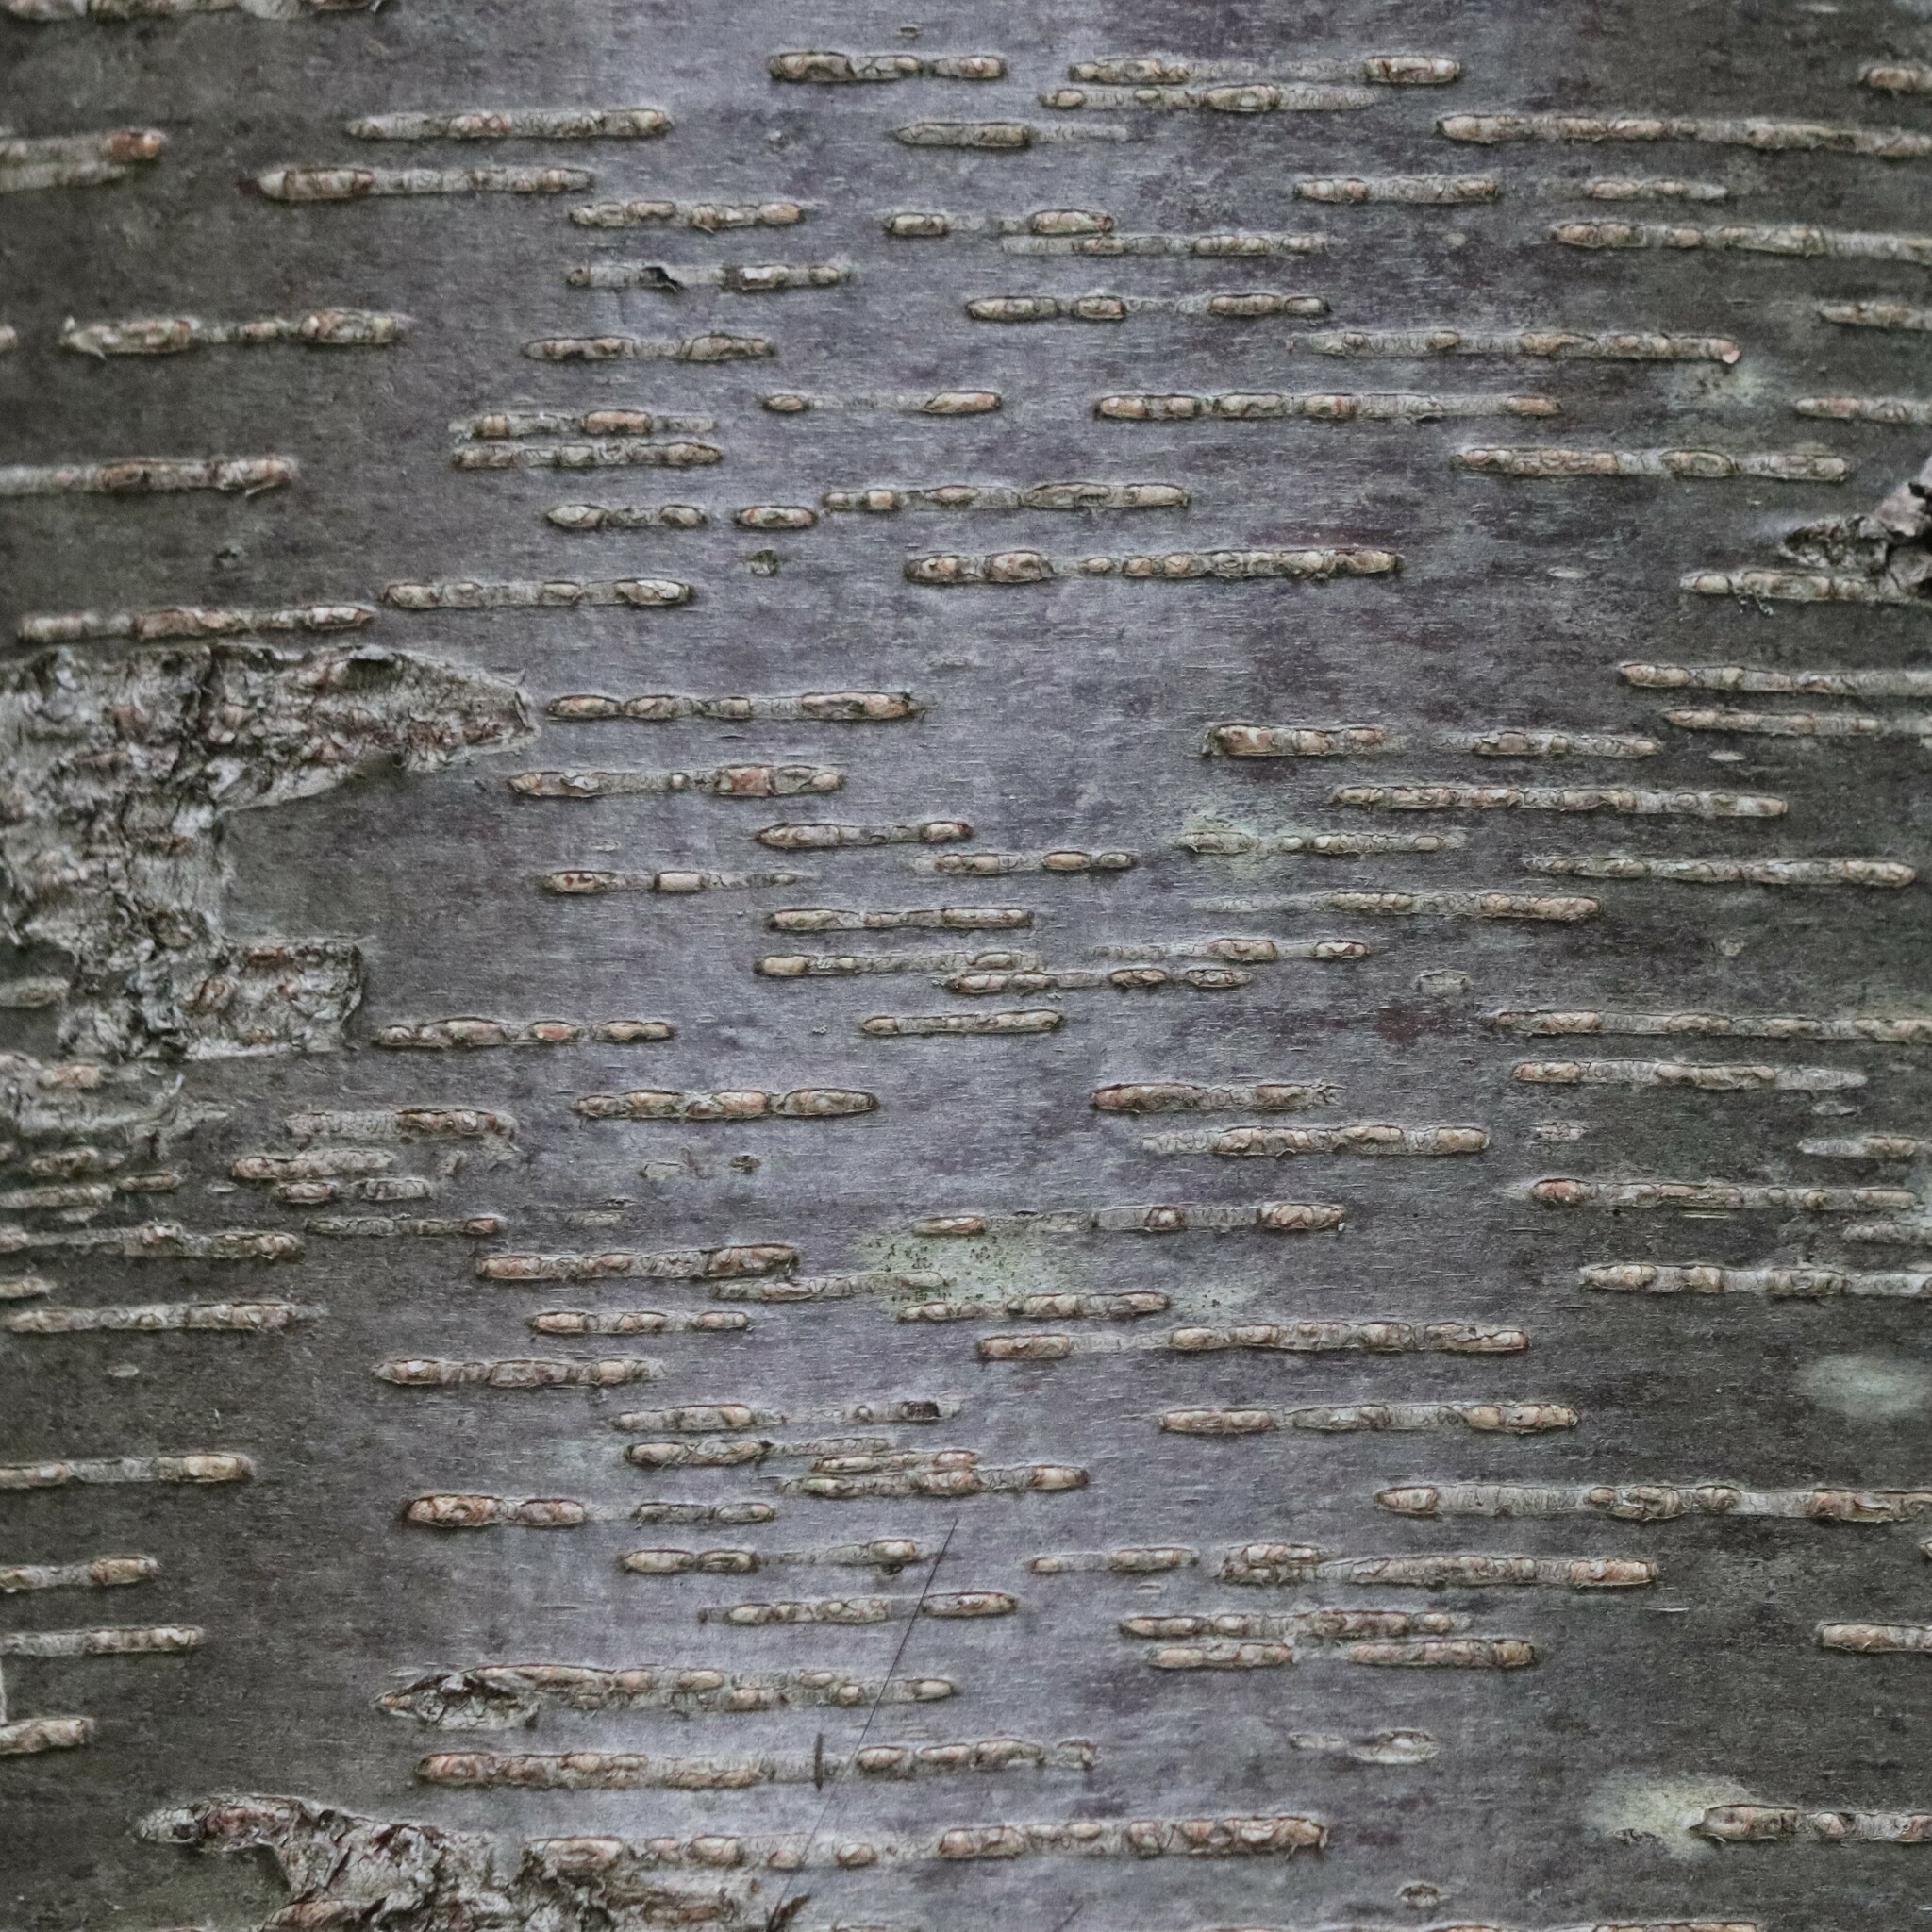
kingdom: Plantae
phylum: Tracheophyta
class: Magnoliopsida
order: Fagales
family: Betulaceae
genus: Betula
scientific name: Betula lenta
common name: Black birch
